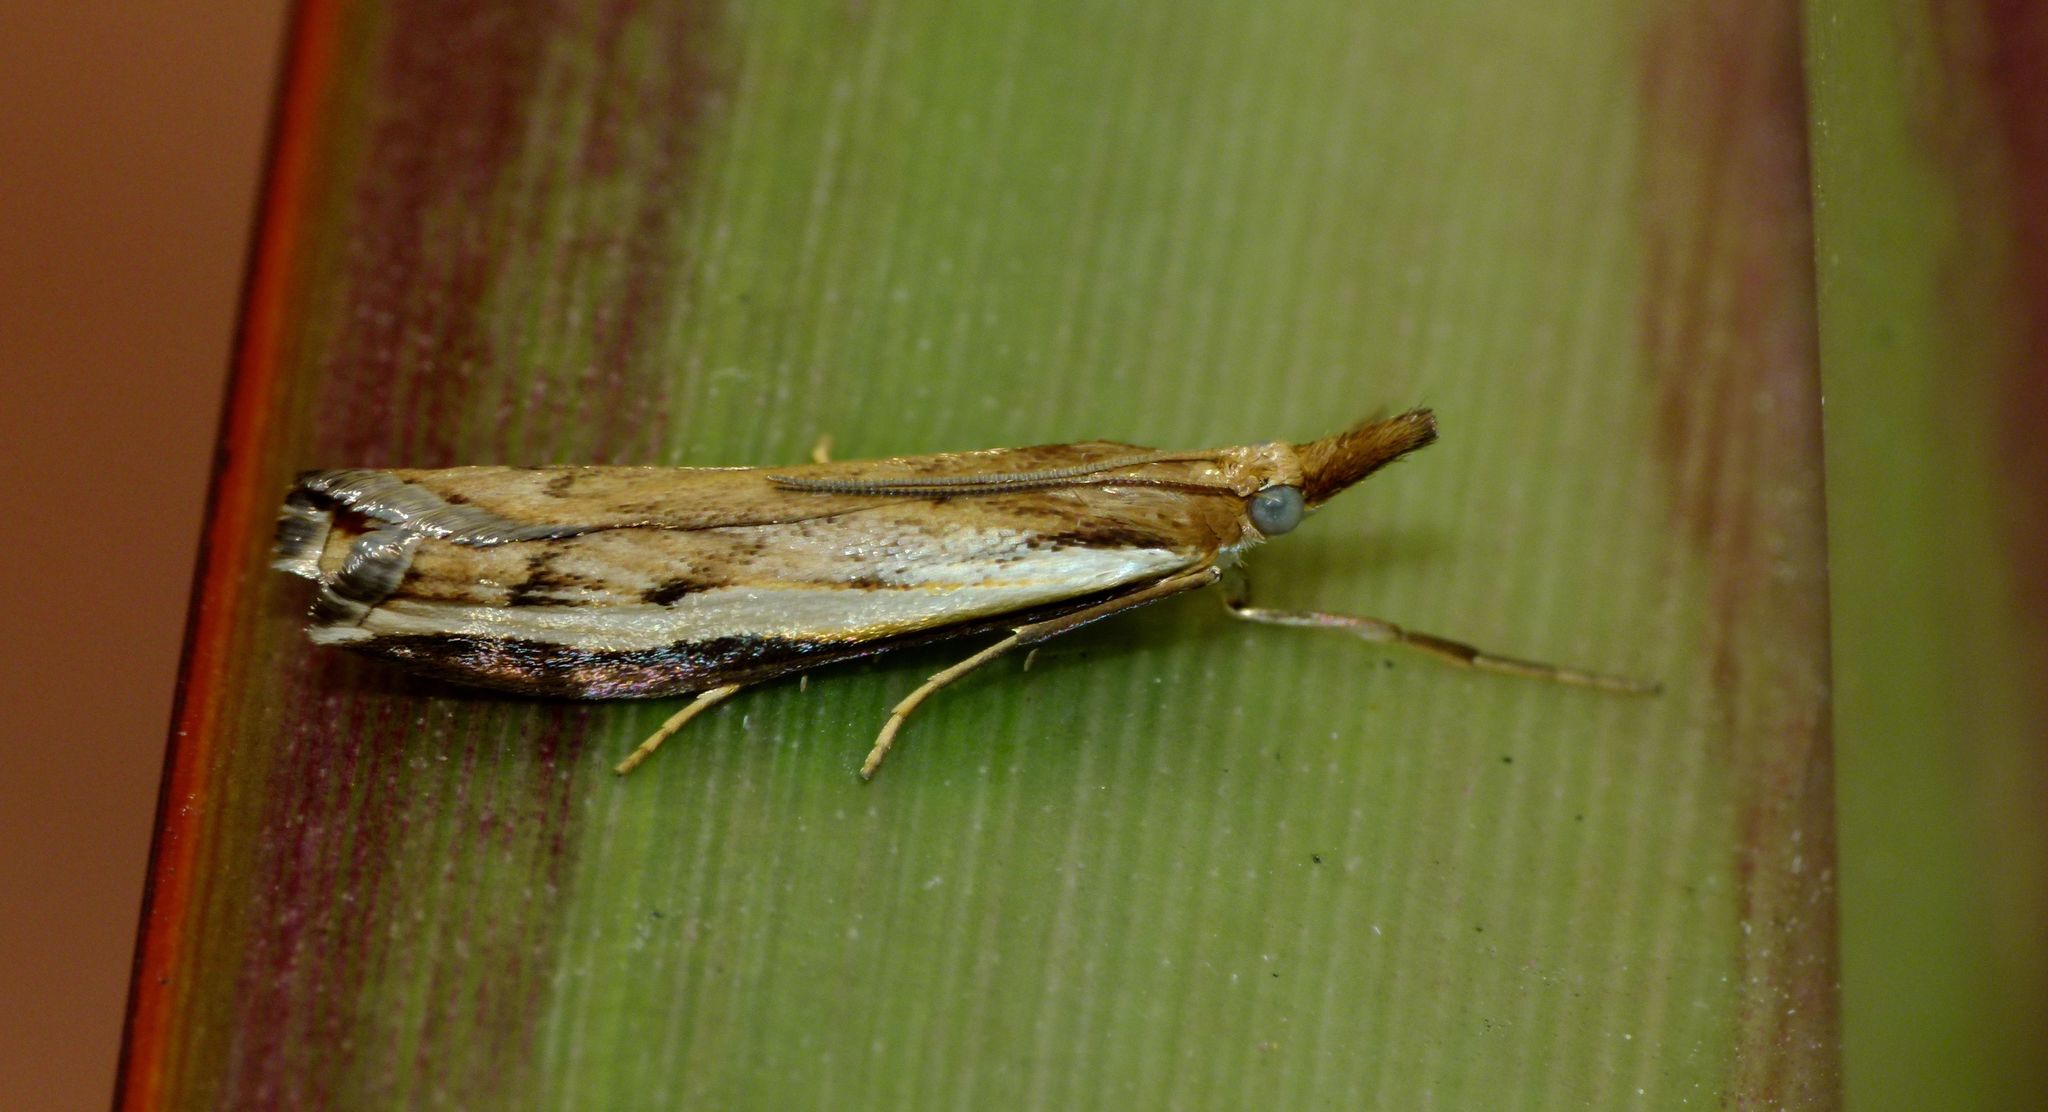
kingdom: Animalia
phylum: Arthropoda
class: Insecta
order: Lepidoptera
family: Crambidae
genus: Orocrambus
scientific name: Orocrambus flexuosellus
